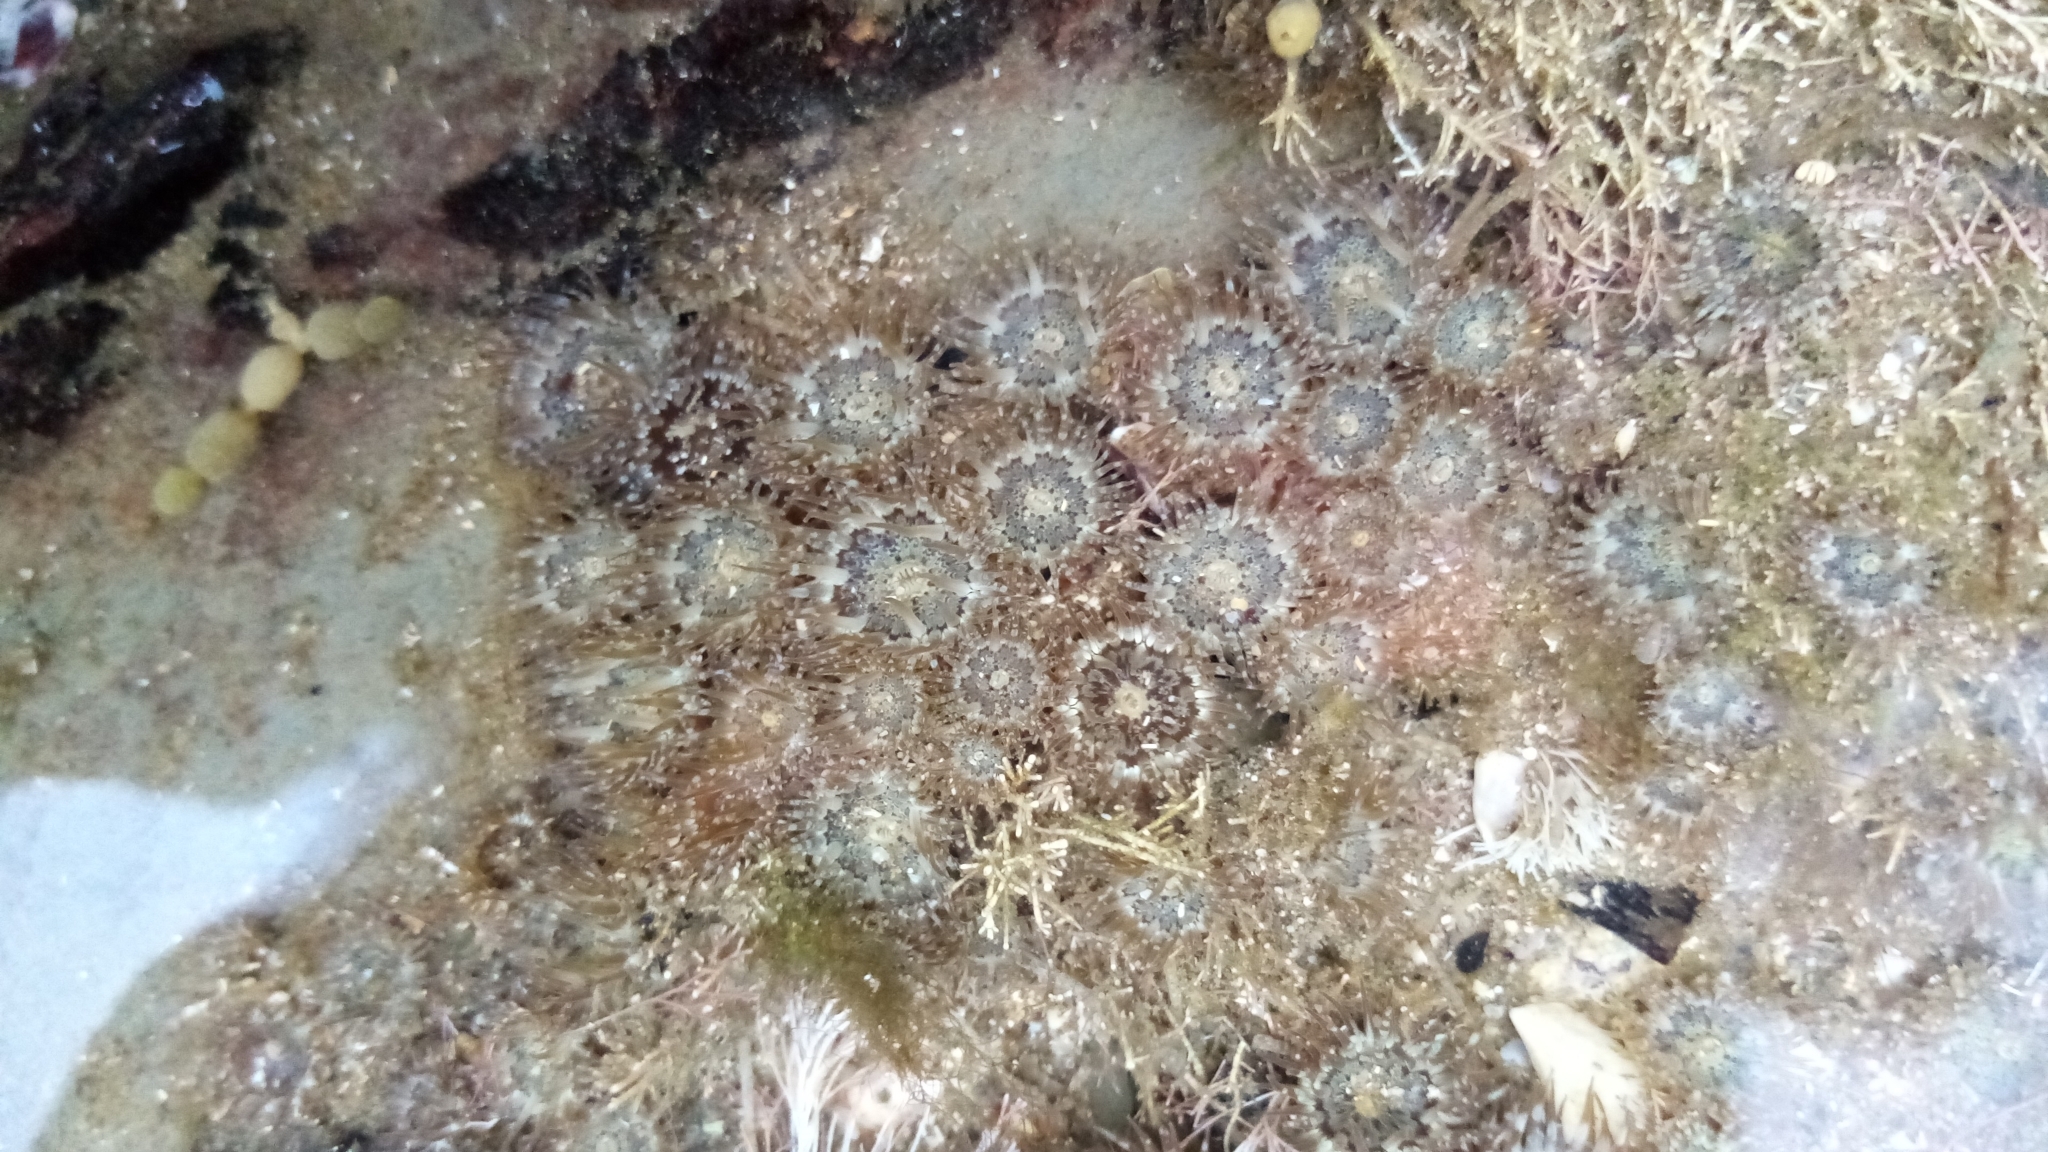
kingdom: Animalia
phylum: Cnidaria
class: Anthozoa
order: Actiniaria
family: Actiniidae
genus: Anthopleura
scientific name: Anthopleura hermaphroditica
